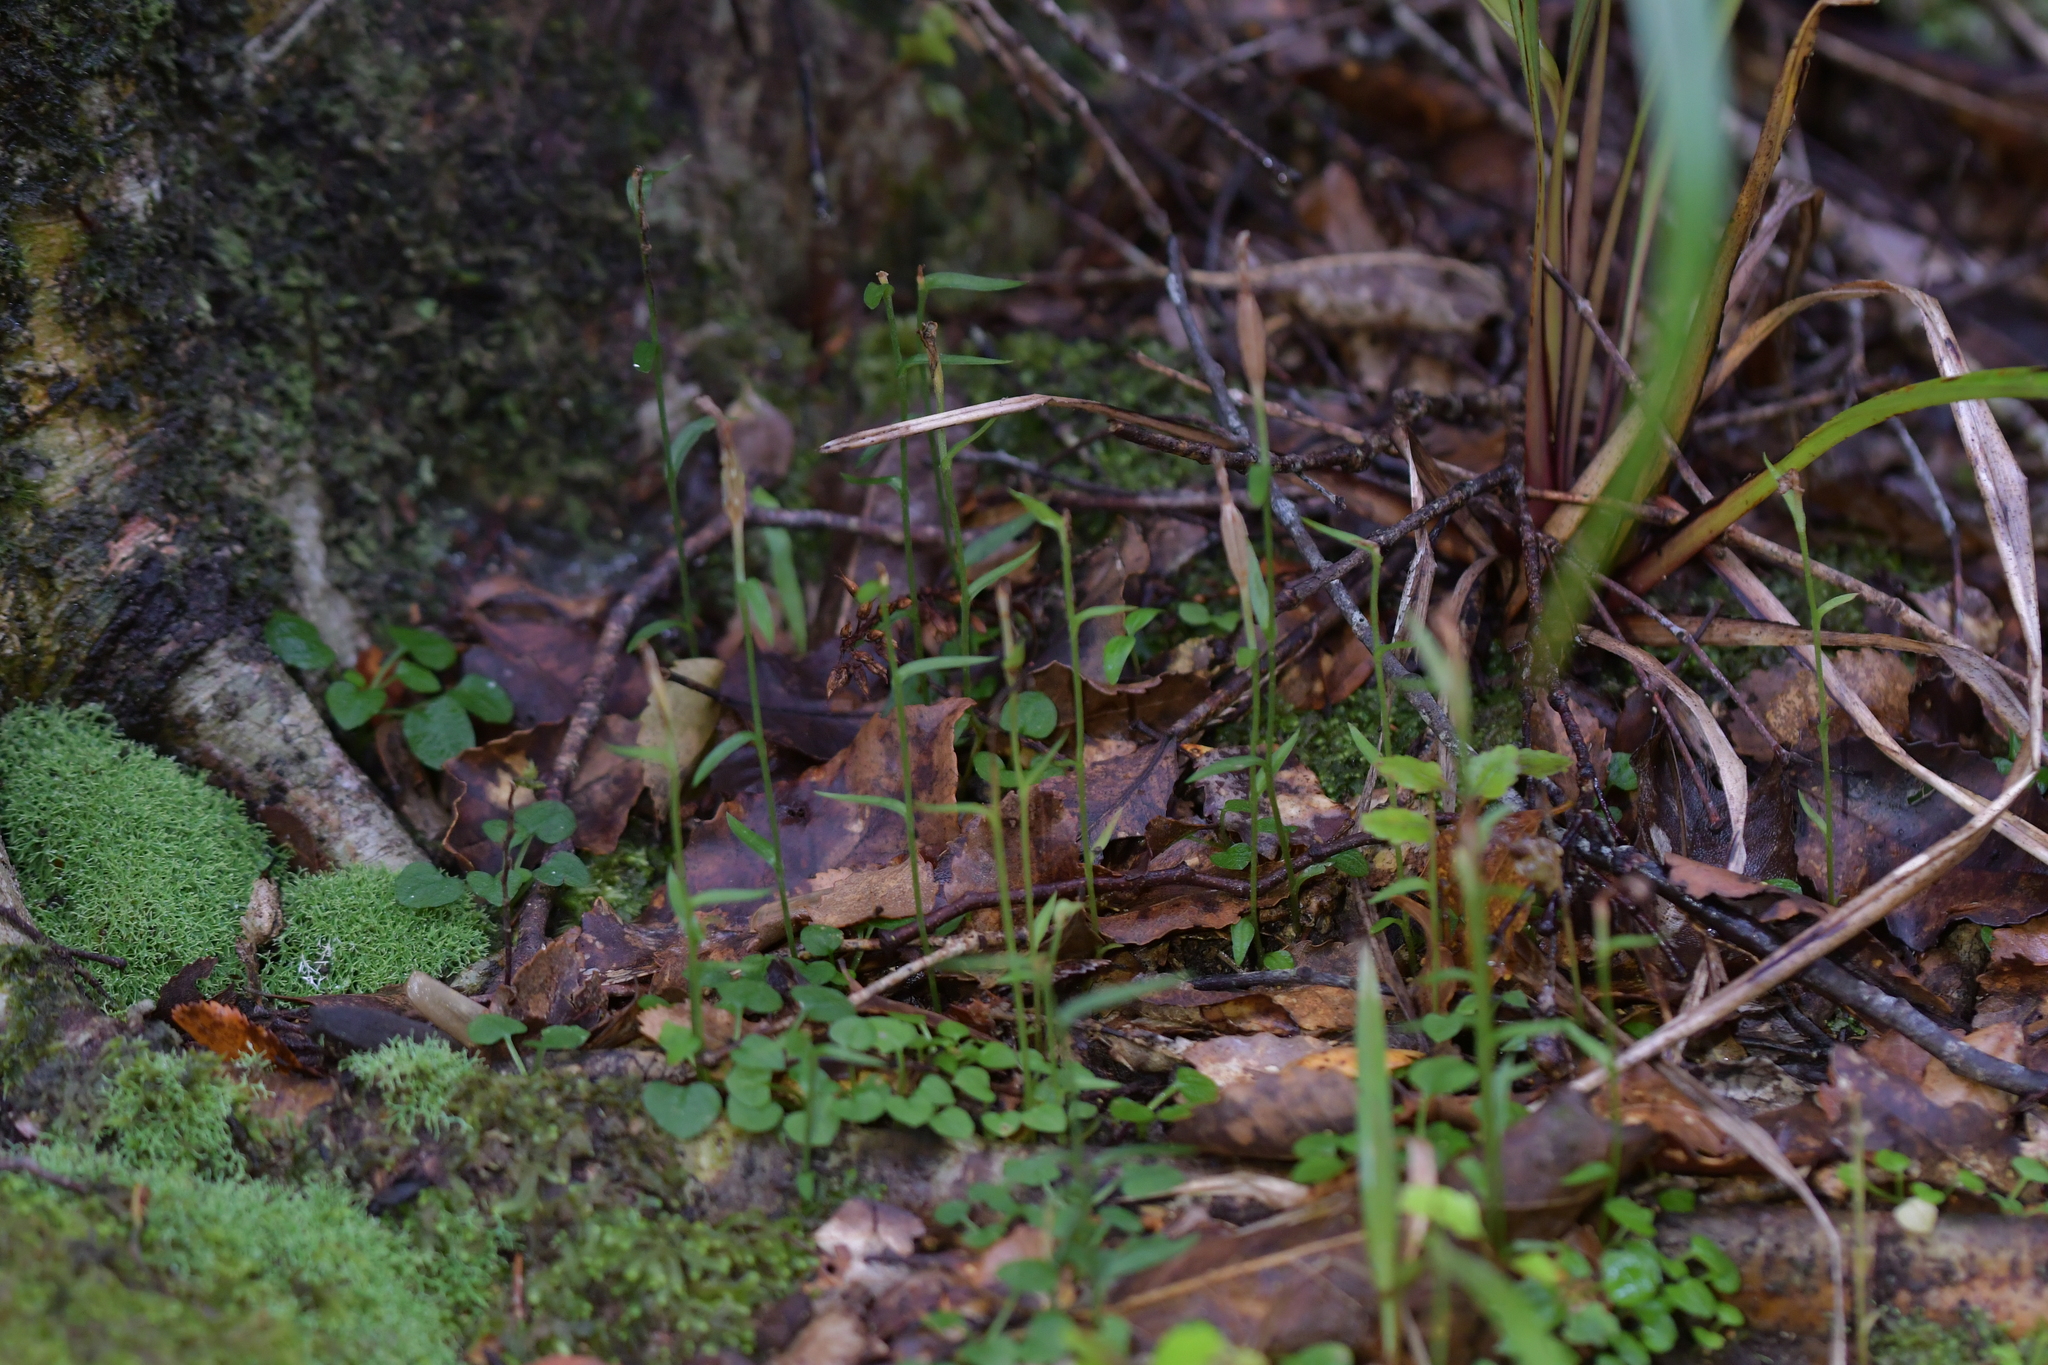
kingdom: Plantae
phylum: Tracheophyta
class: Liliopsida
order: Asparagales
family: Orchidaceae
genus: Pterostylis
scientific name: Pterostylis alobula
